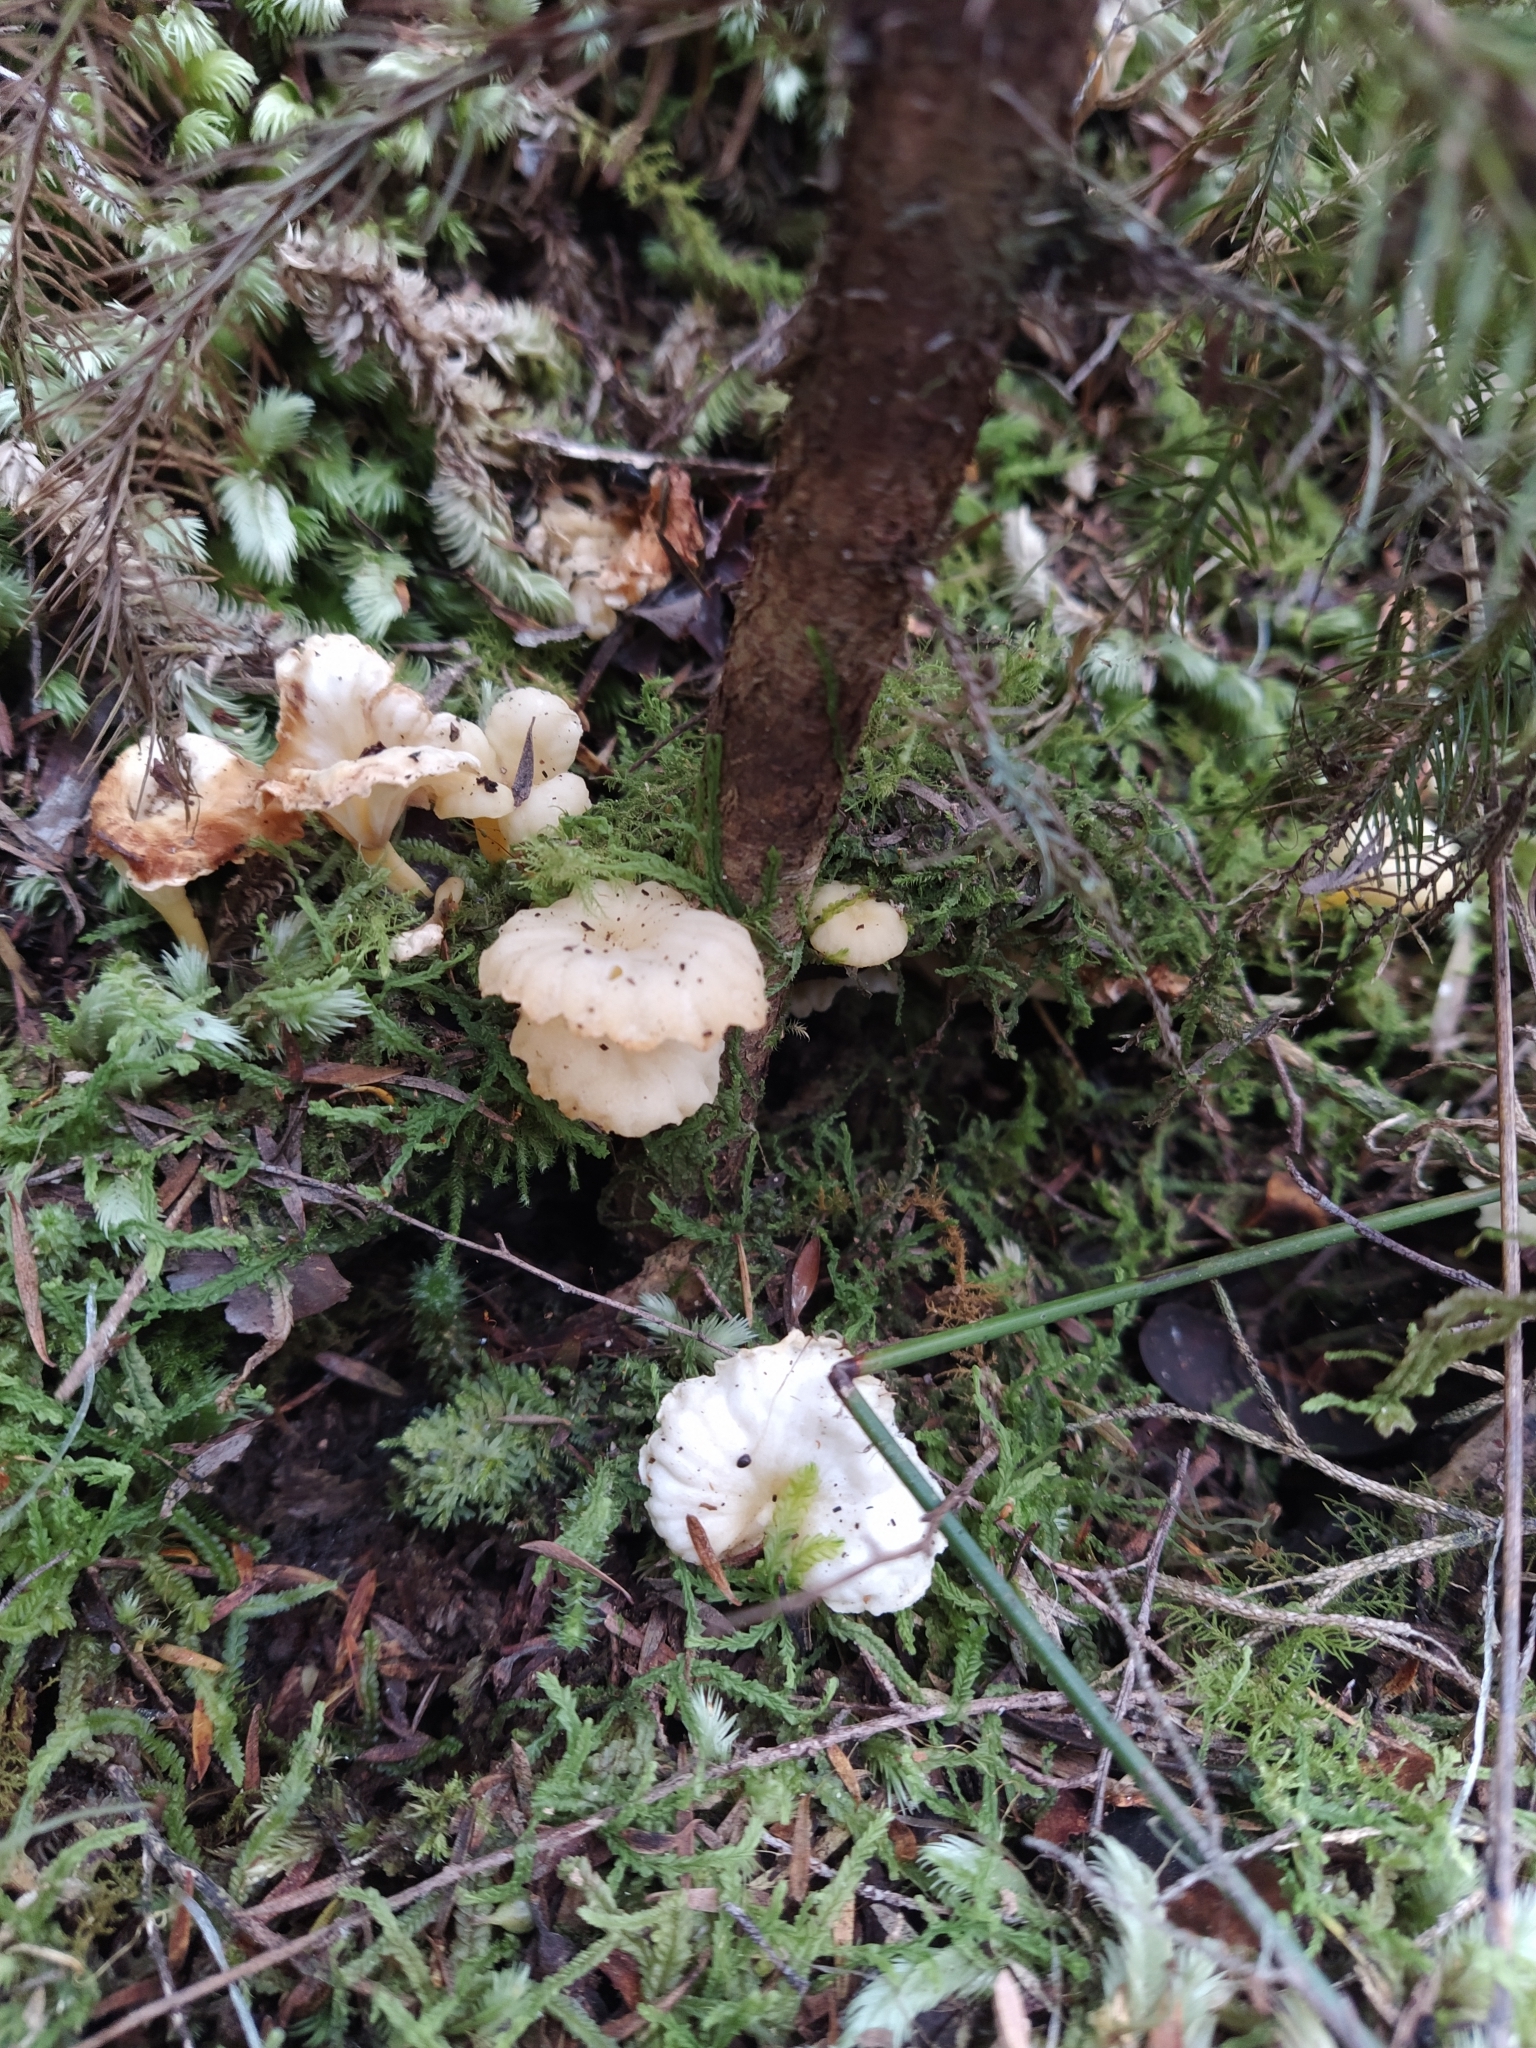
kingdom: Fungi
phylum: Basidiomycota
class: Agaricomycetes
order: Cantharellales
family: Hydnaceae
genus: Cantharellus
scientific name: Cantharellus wellingtonensis
